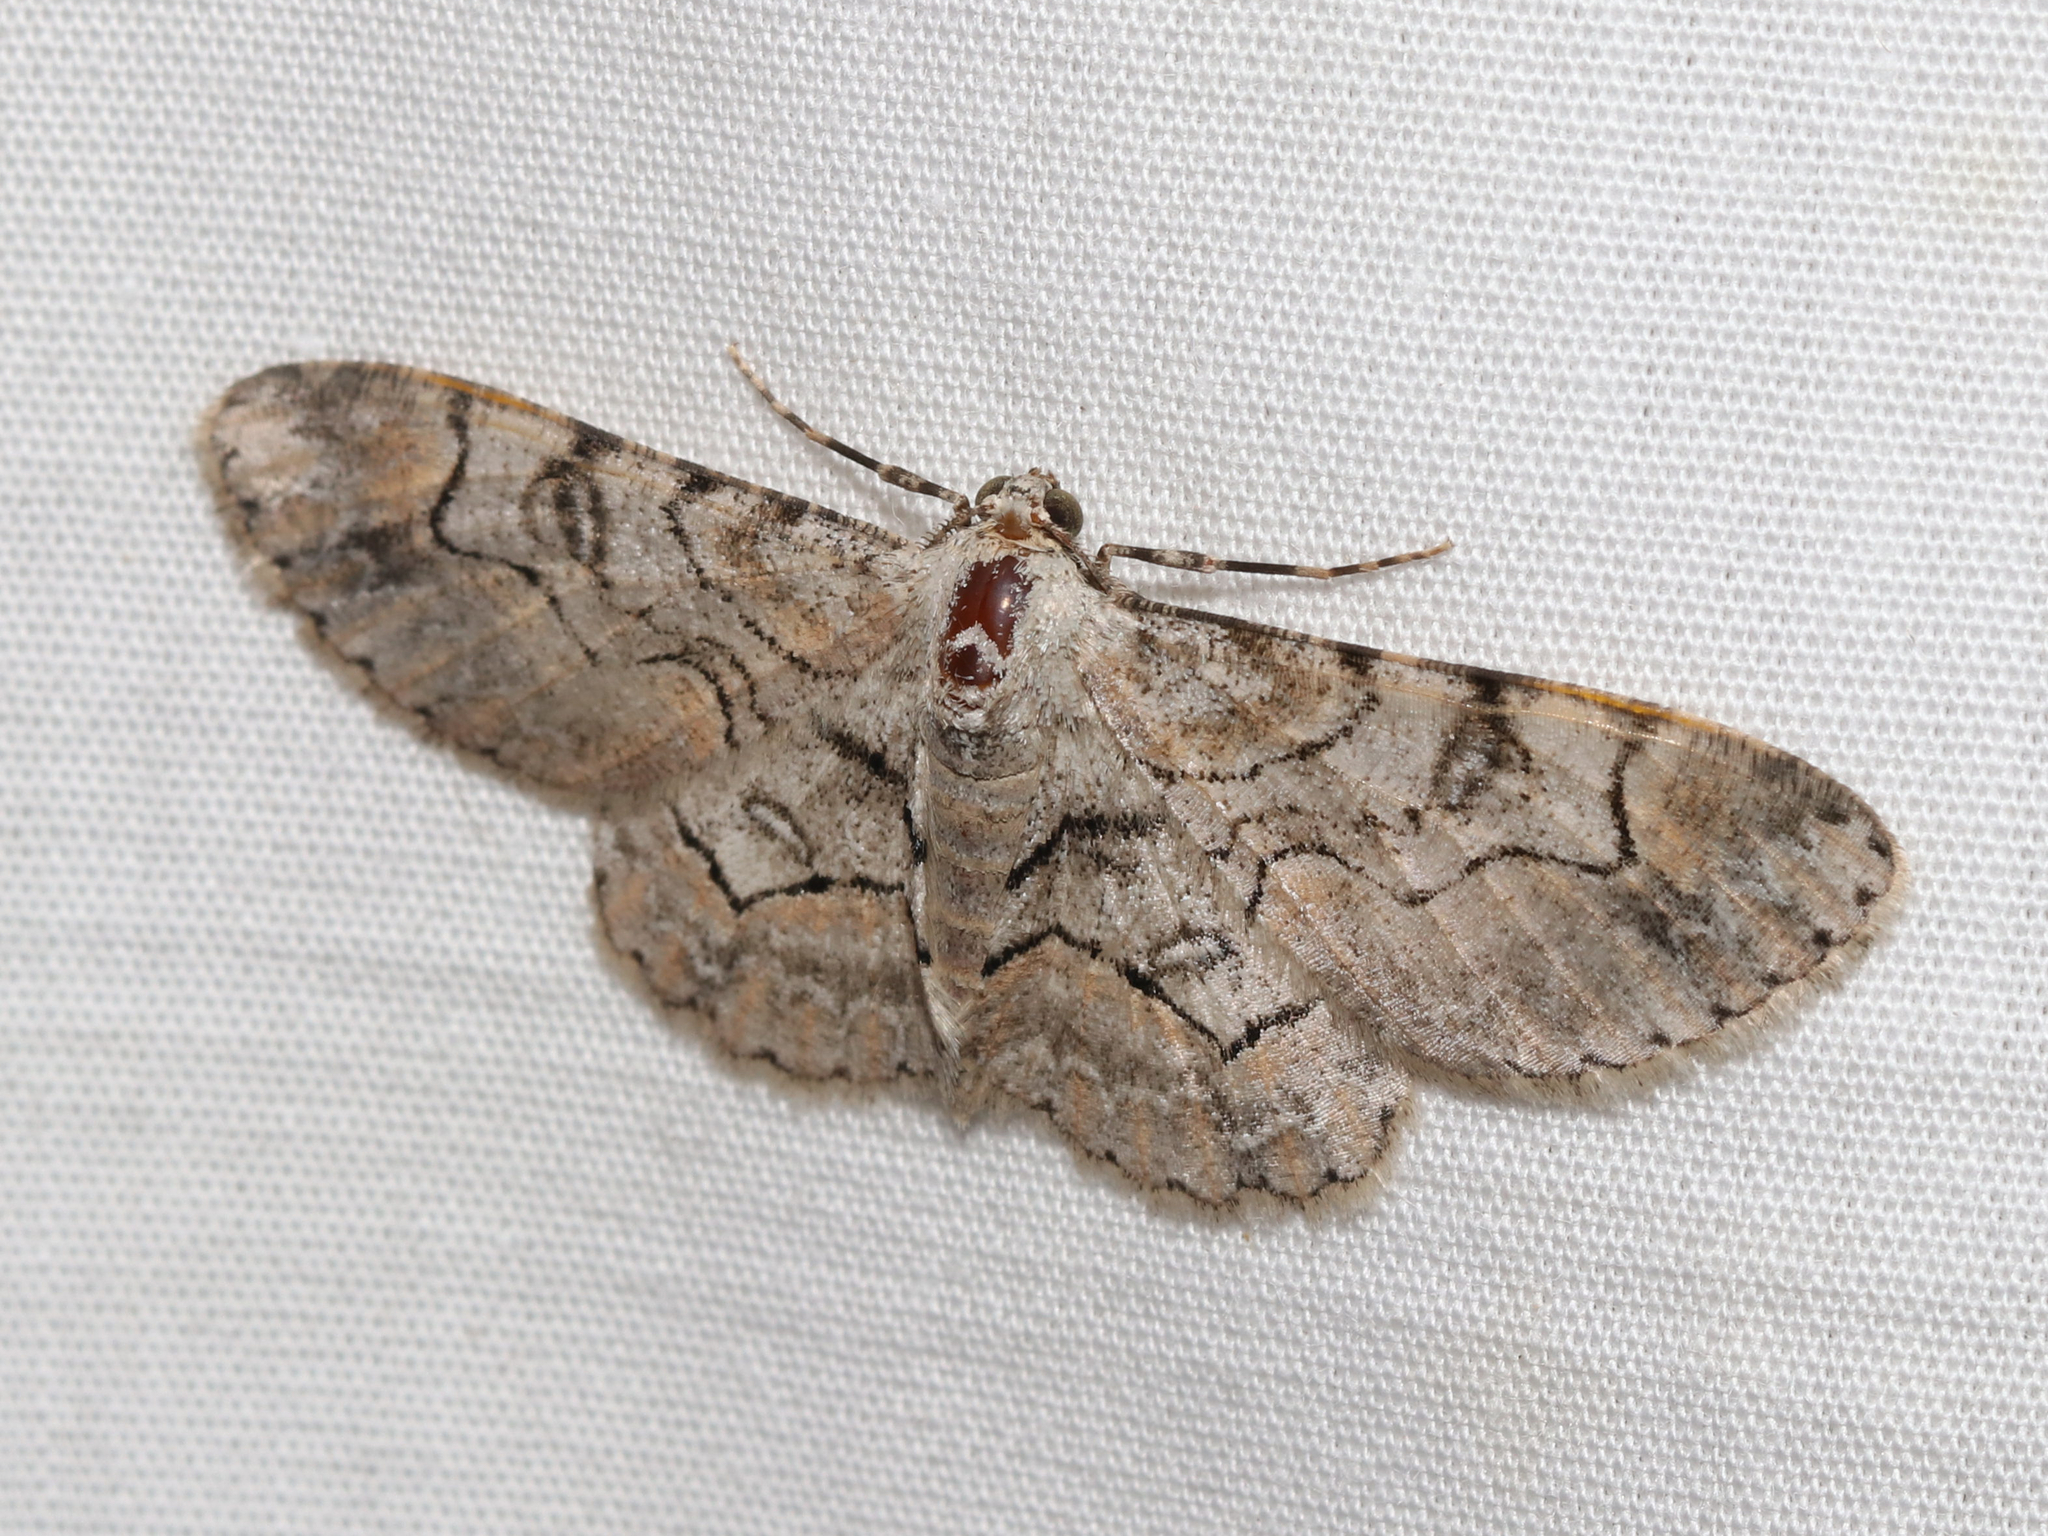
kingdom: Animalia
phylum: Arthropoda
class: Insecta
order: Lepidoptera
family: Geometridae
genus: Iridopsis
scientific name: Iridopsis larvaria
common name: Bent-line gray
